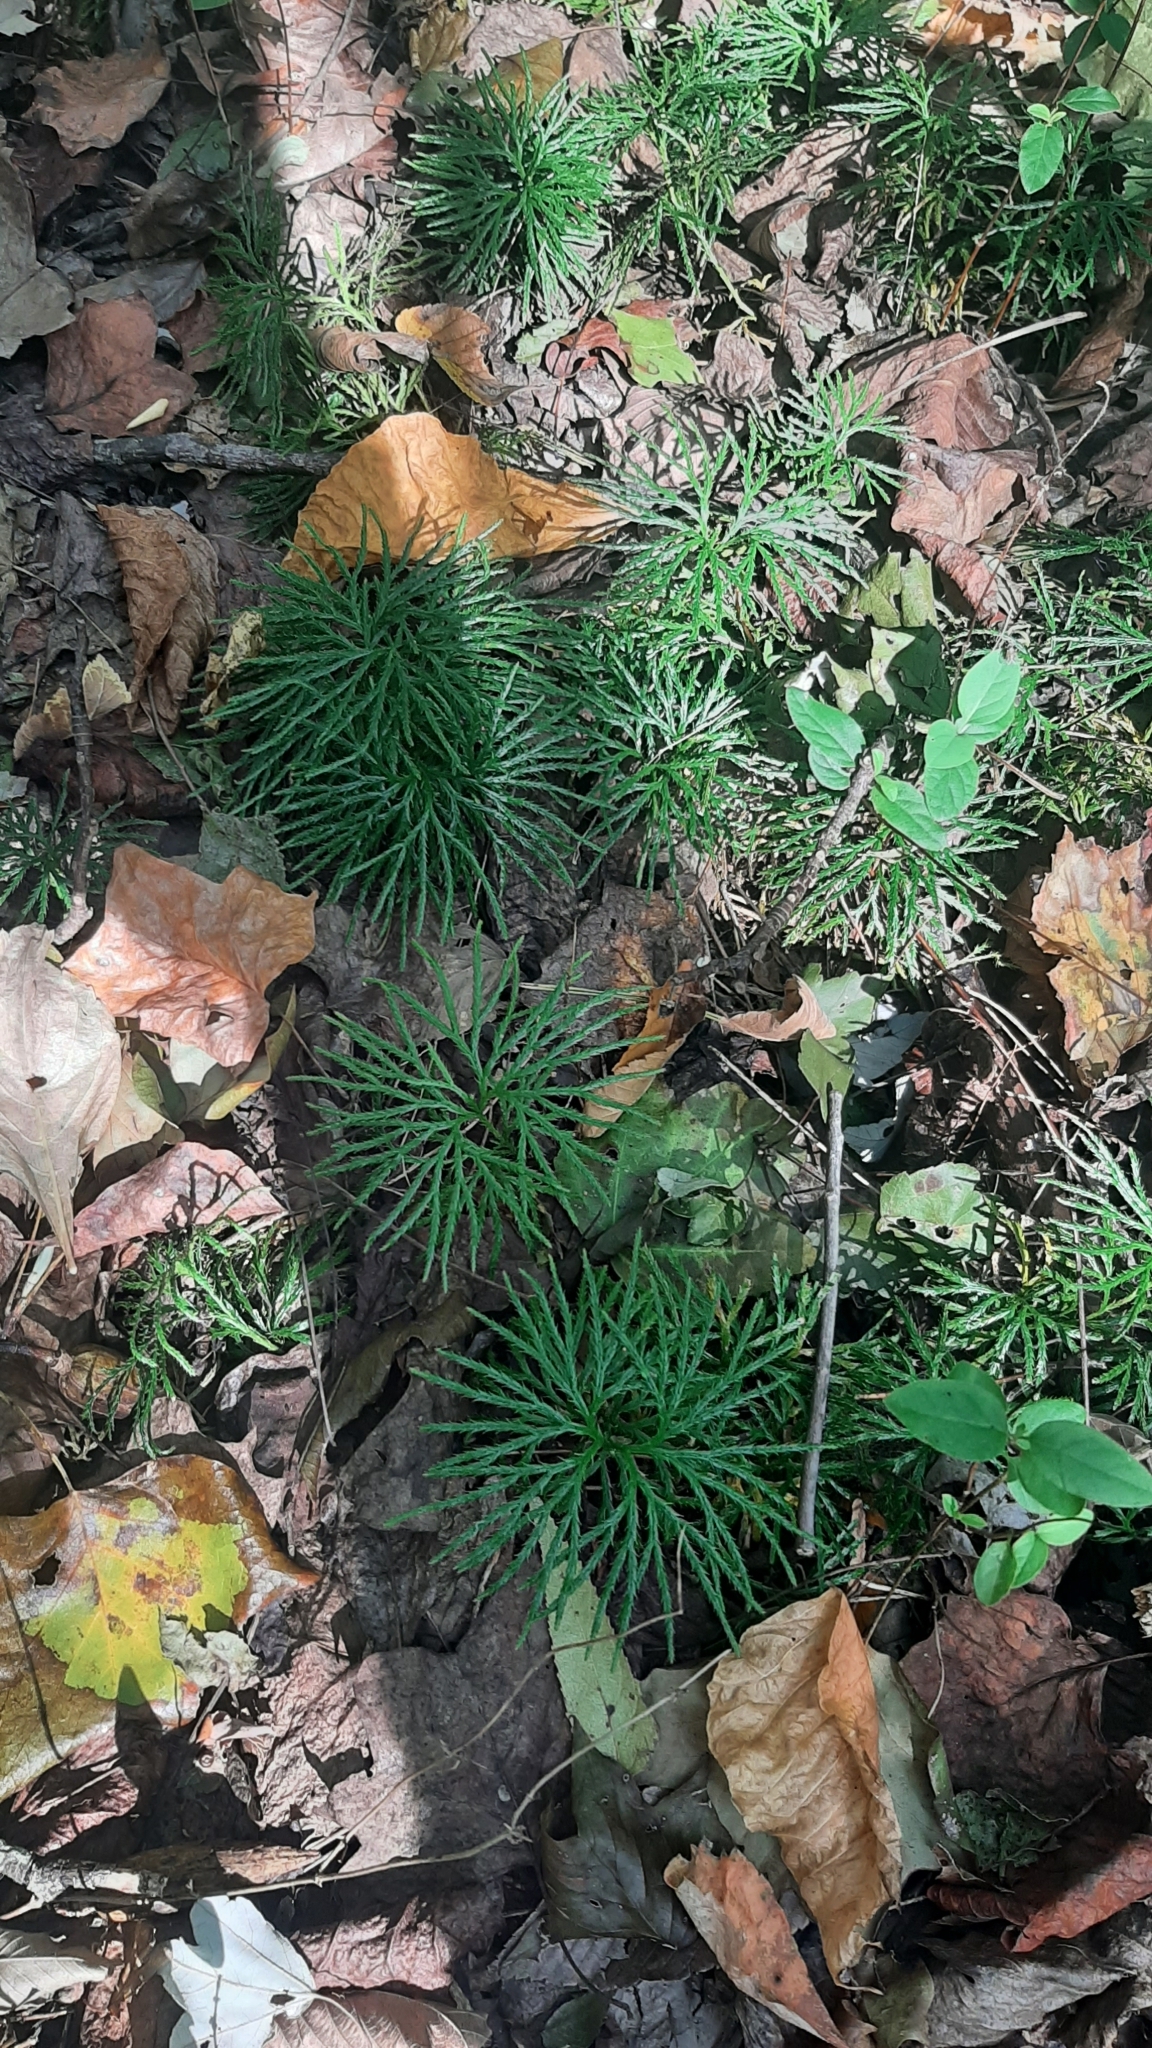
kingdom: Plantae
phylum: Tracheophyta
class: Lycopodiopsida
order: Lycopodiales
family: Lycopodiaceae
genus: Diphasiastrum
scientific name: Diphasiastrum digitatum
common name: Southern running-pine
